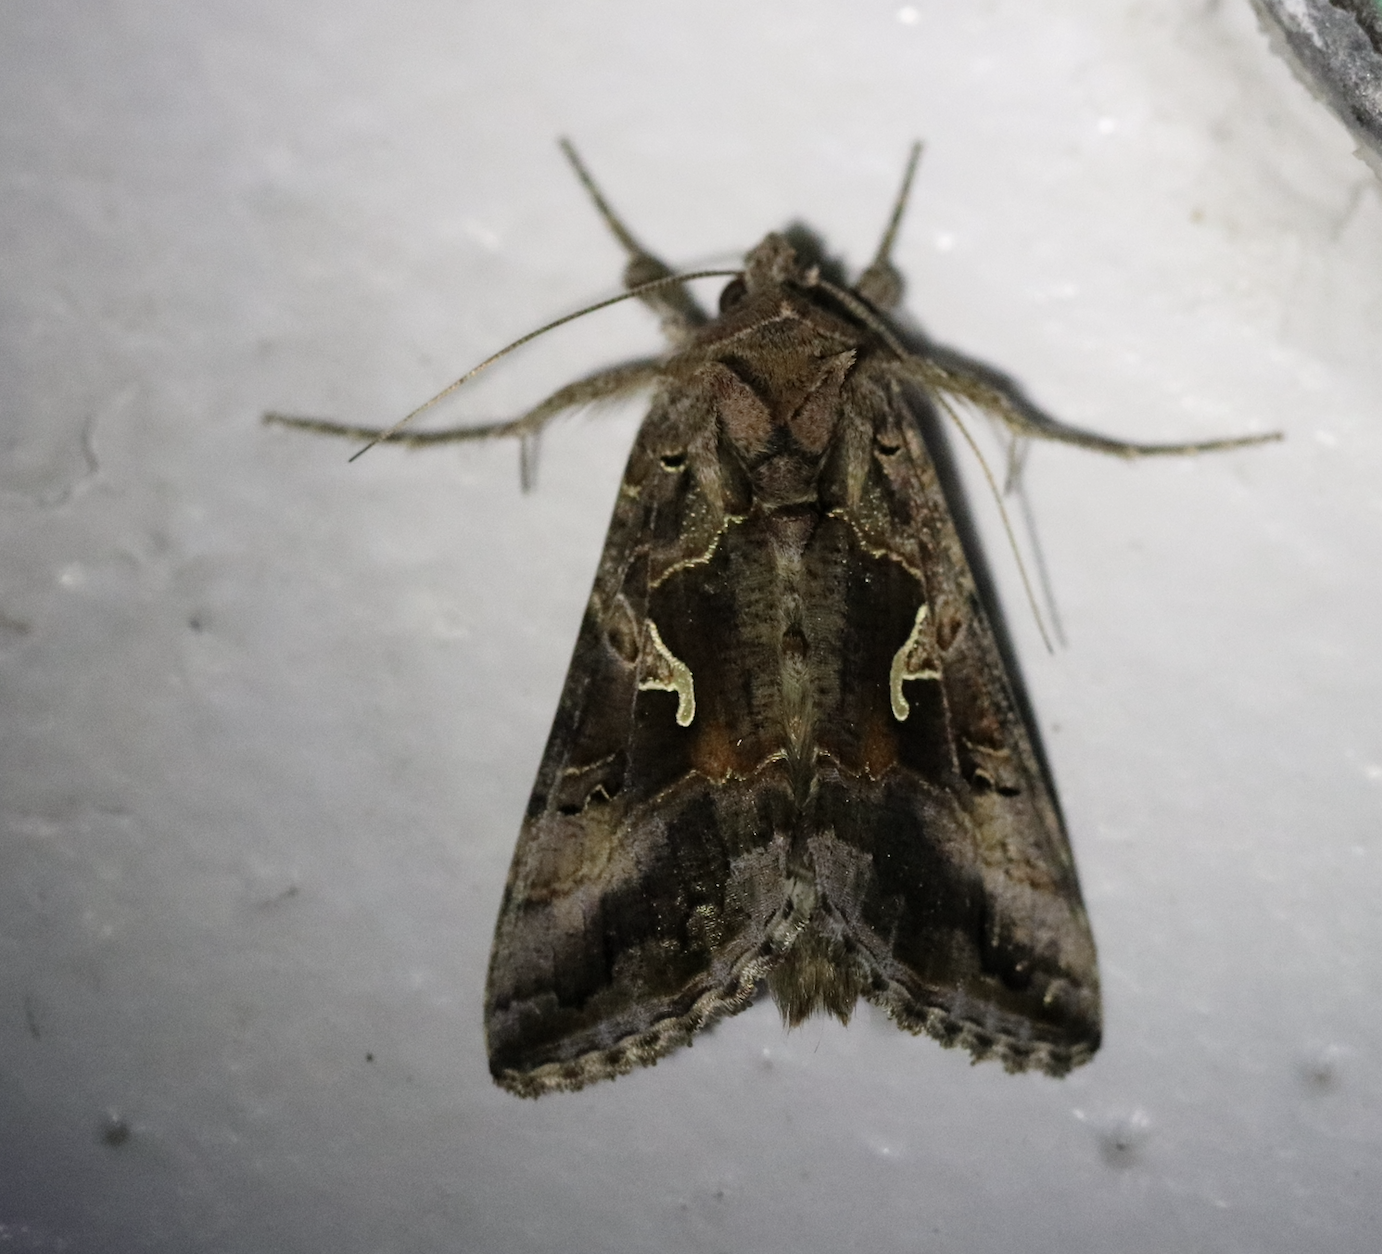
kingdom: Animalia
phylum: Arthropoda
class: Insecta
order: Lepidoptera
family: Noctuidae
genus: Autographa
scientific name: Autographa gamma
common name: Silver y
